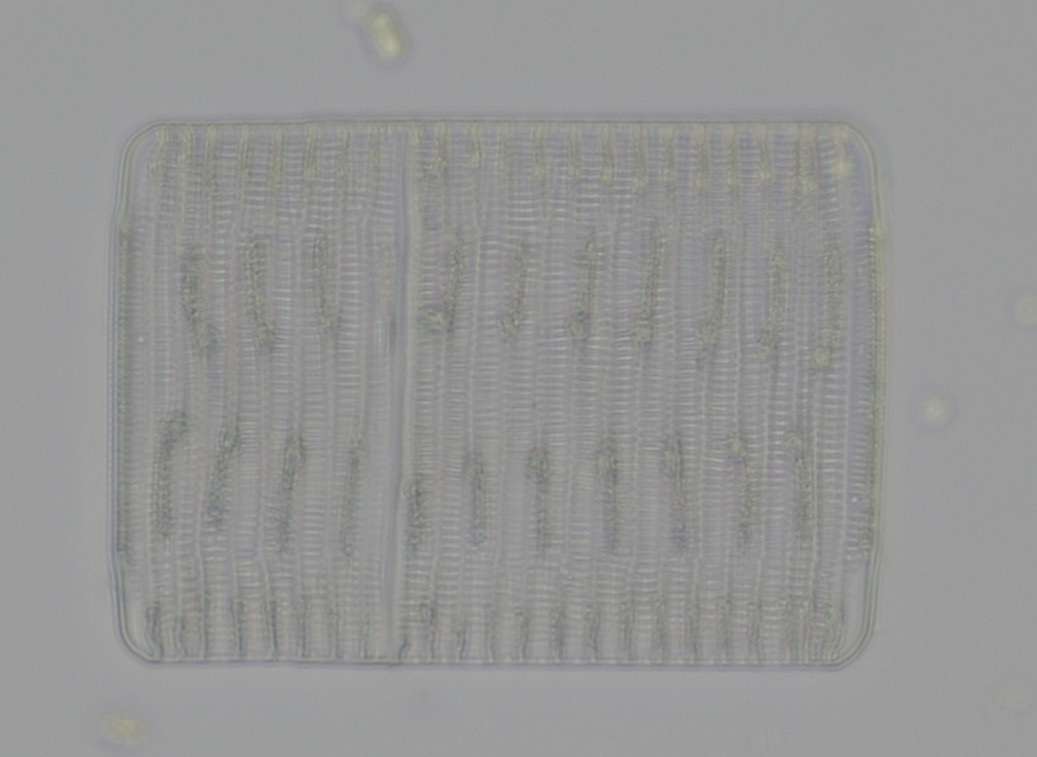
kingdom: Chromista
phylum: Ochrophyta
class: Bacillariophyceae
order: Rhabdonematales
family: Rhabdonemataceae
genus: Rhabdonema
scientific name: Rhabdonema adriaticum
